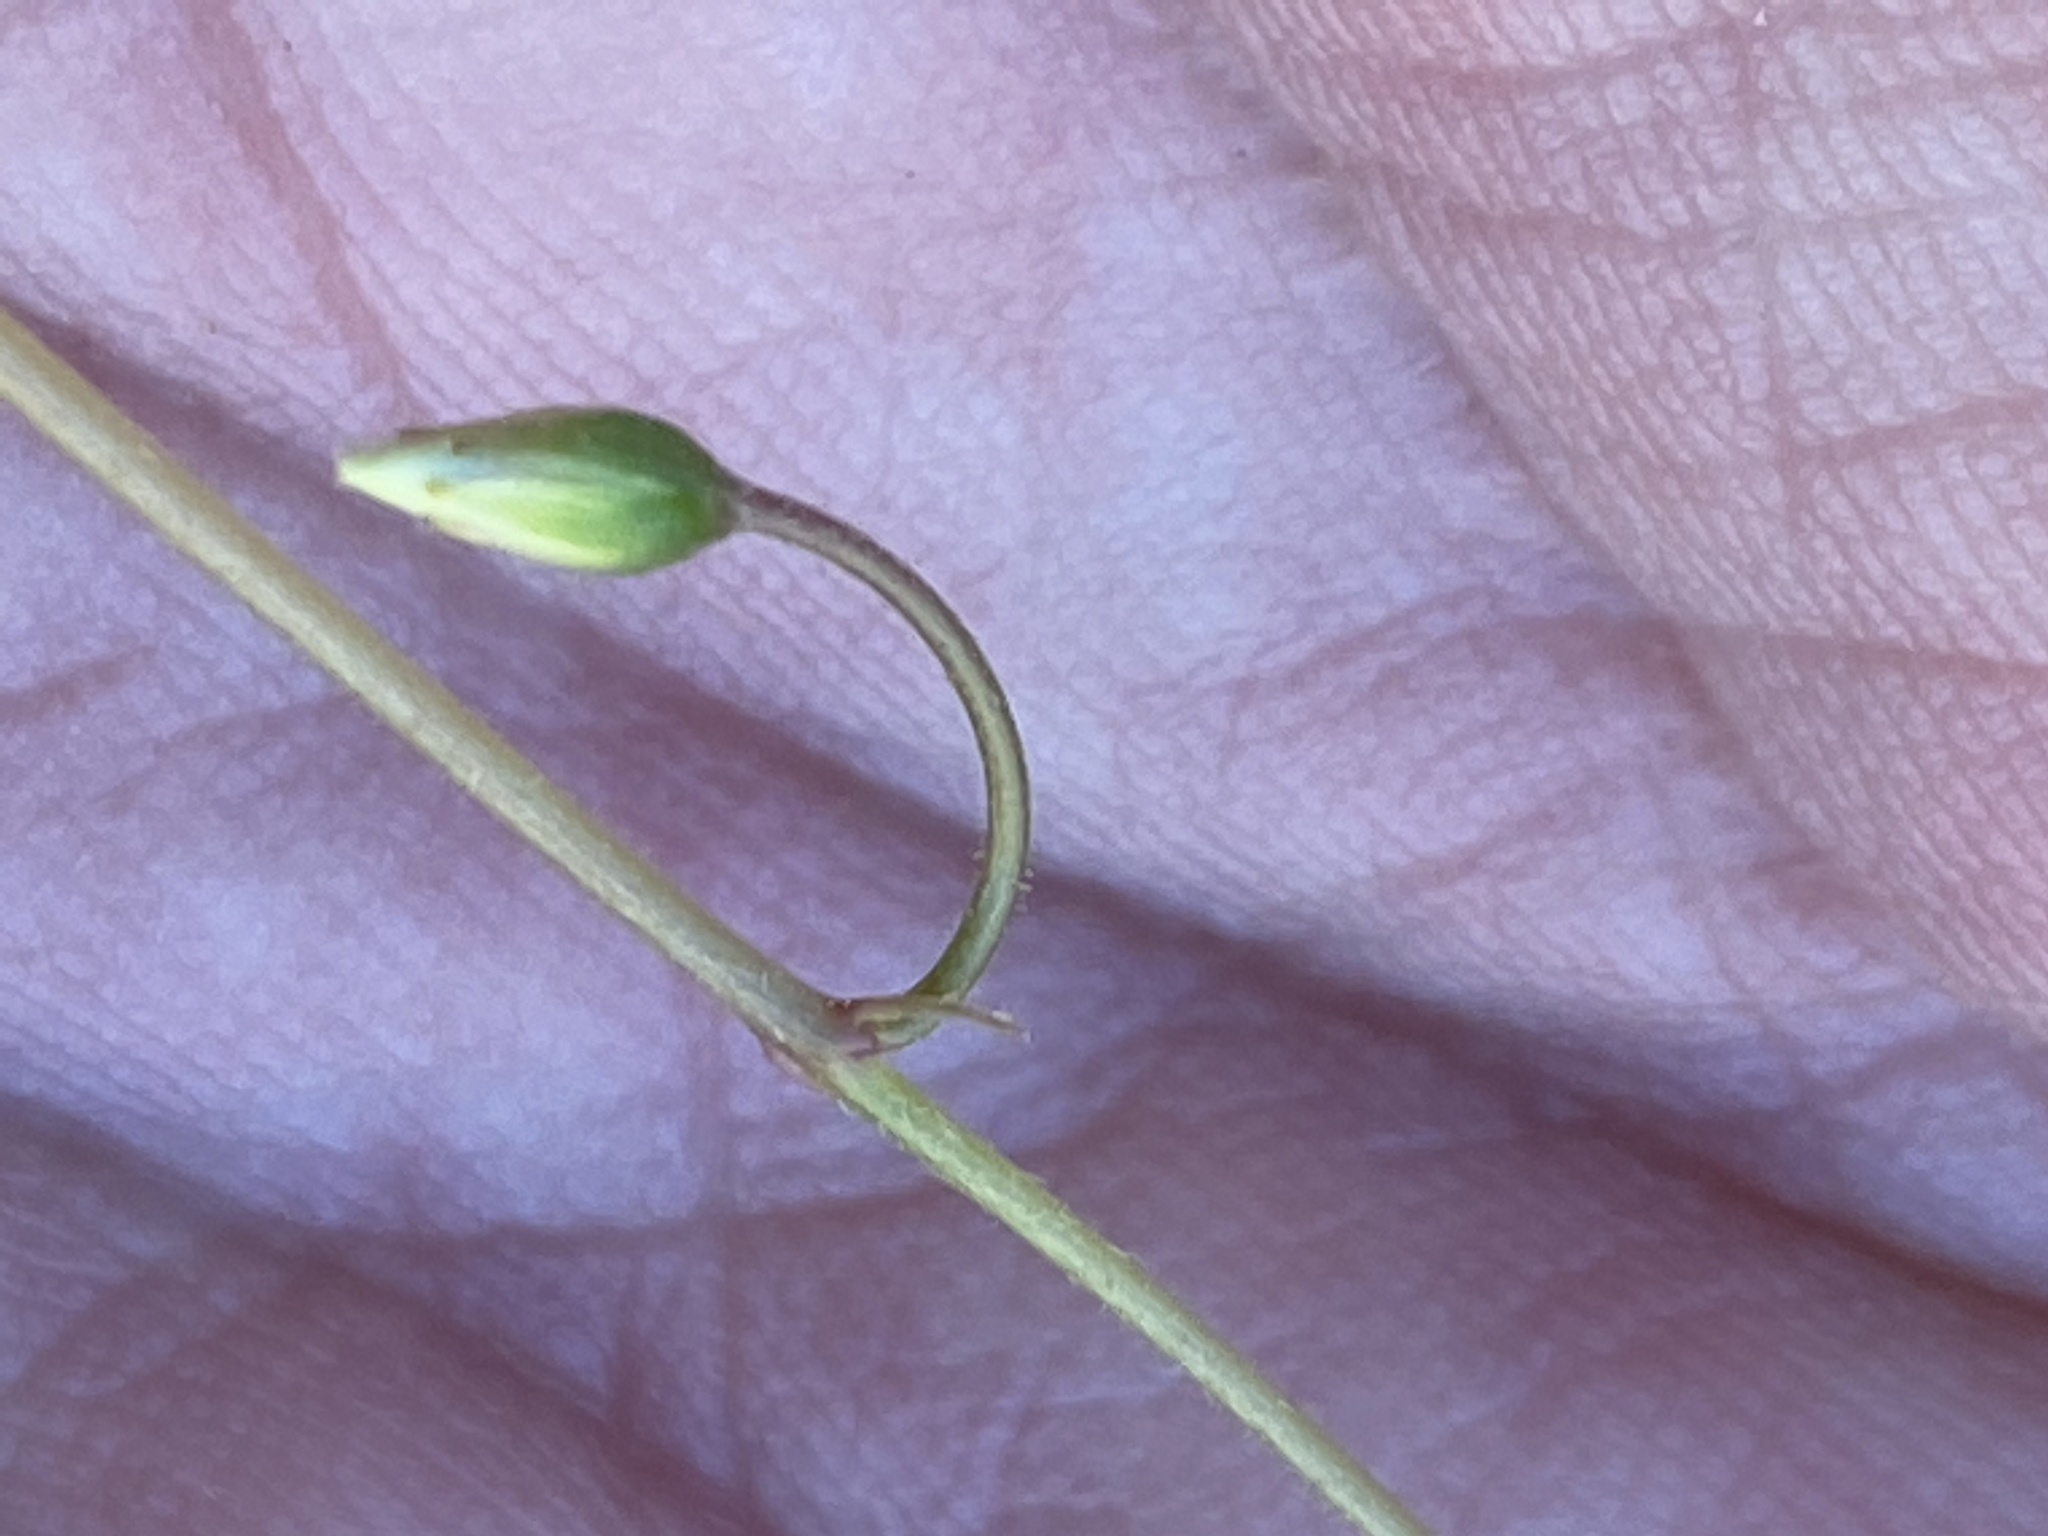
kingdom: Plantae
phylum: Tracheophyta
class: Magnoliopsida
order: Oxalidales
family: Oxalidaceae
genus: Oxalis
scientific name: Oxalis stellata
